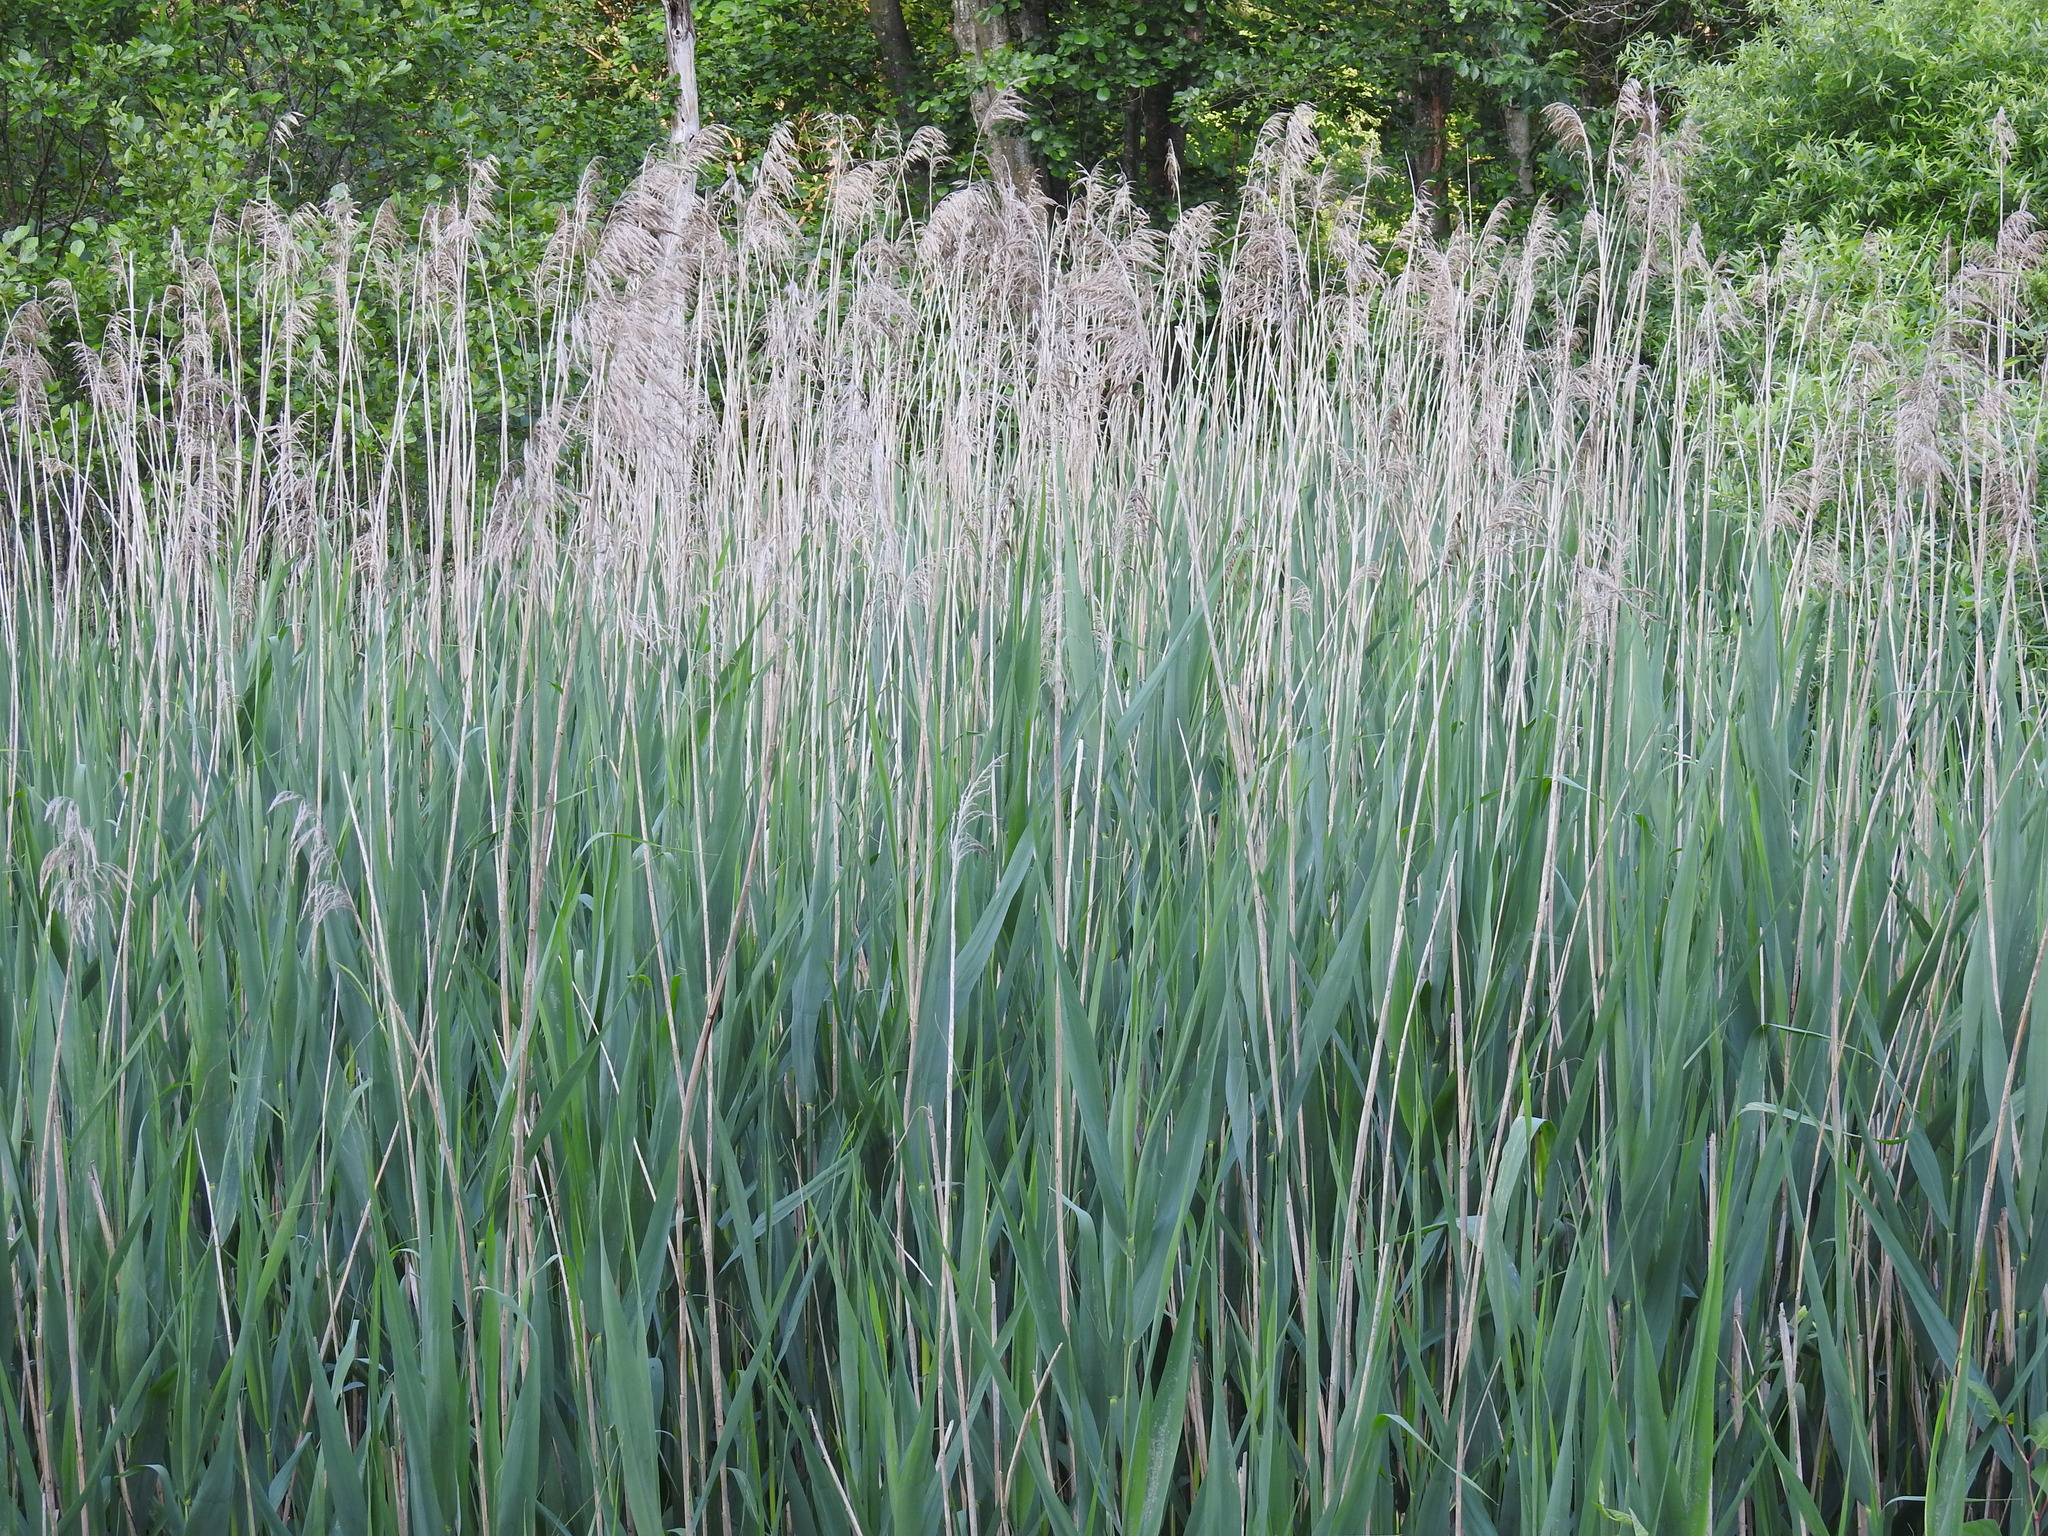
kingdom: Plantae
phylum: Tracheophyta
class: Liliopsida
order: Poales
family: Poaceae
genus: Phragmites
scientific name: Phragmites australis
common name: Common reed
